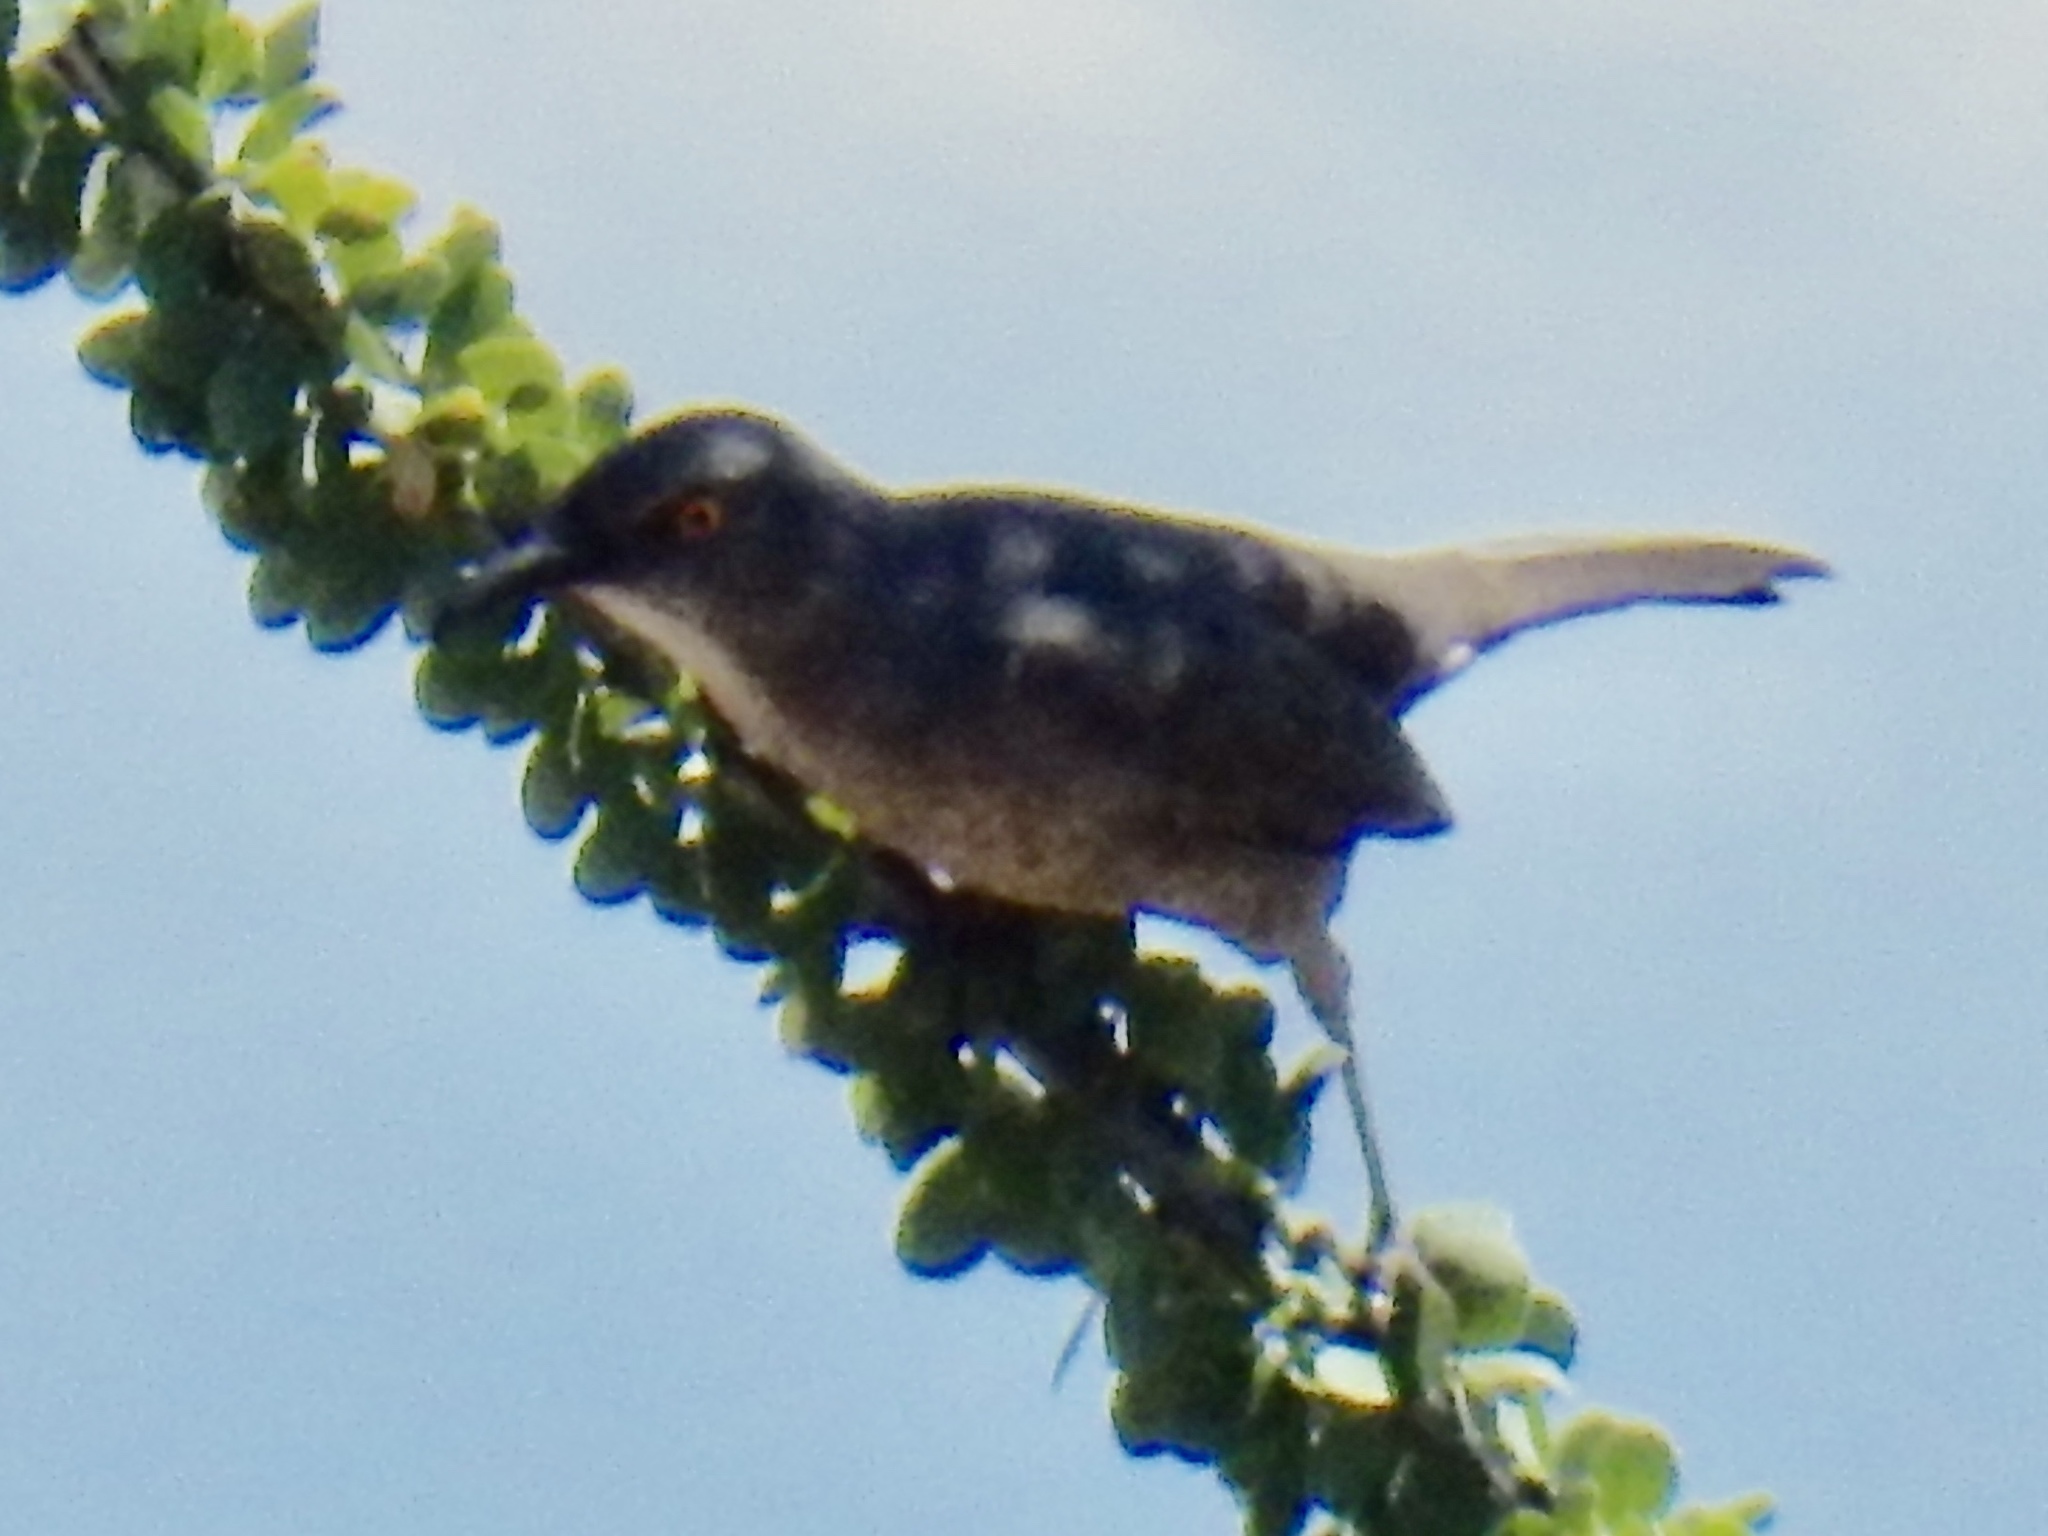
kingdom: Animalia
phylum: Chordata
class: Aves
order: Passeriformes
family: Mimidae
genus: Toxostoma
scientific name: Toxostoma curvirostre
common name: Curve-billed thrasher
